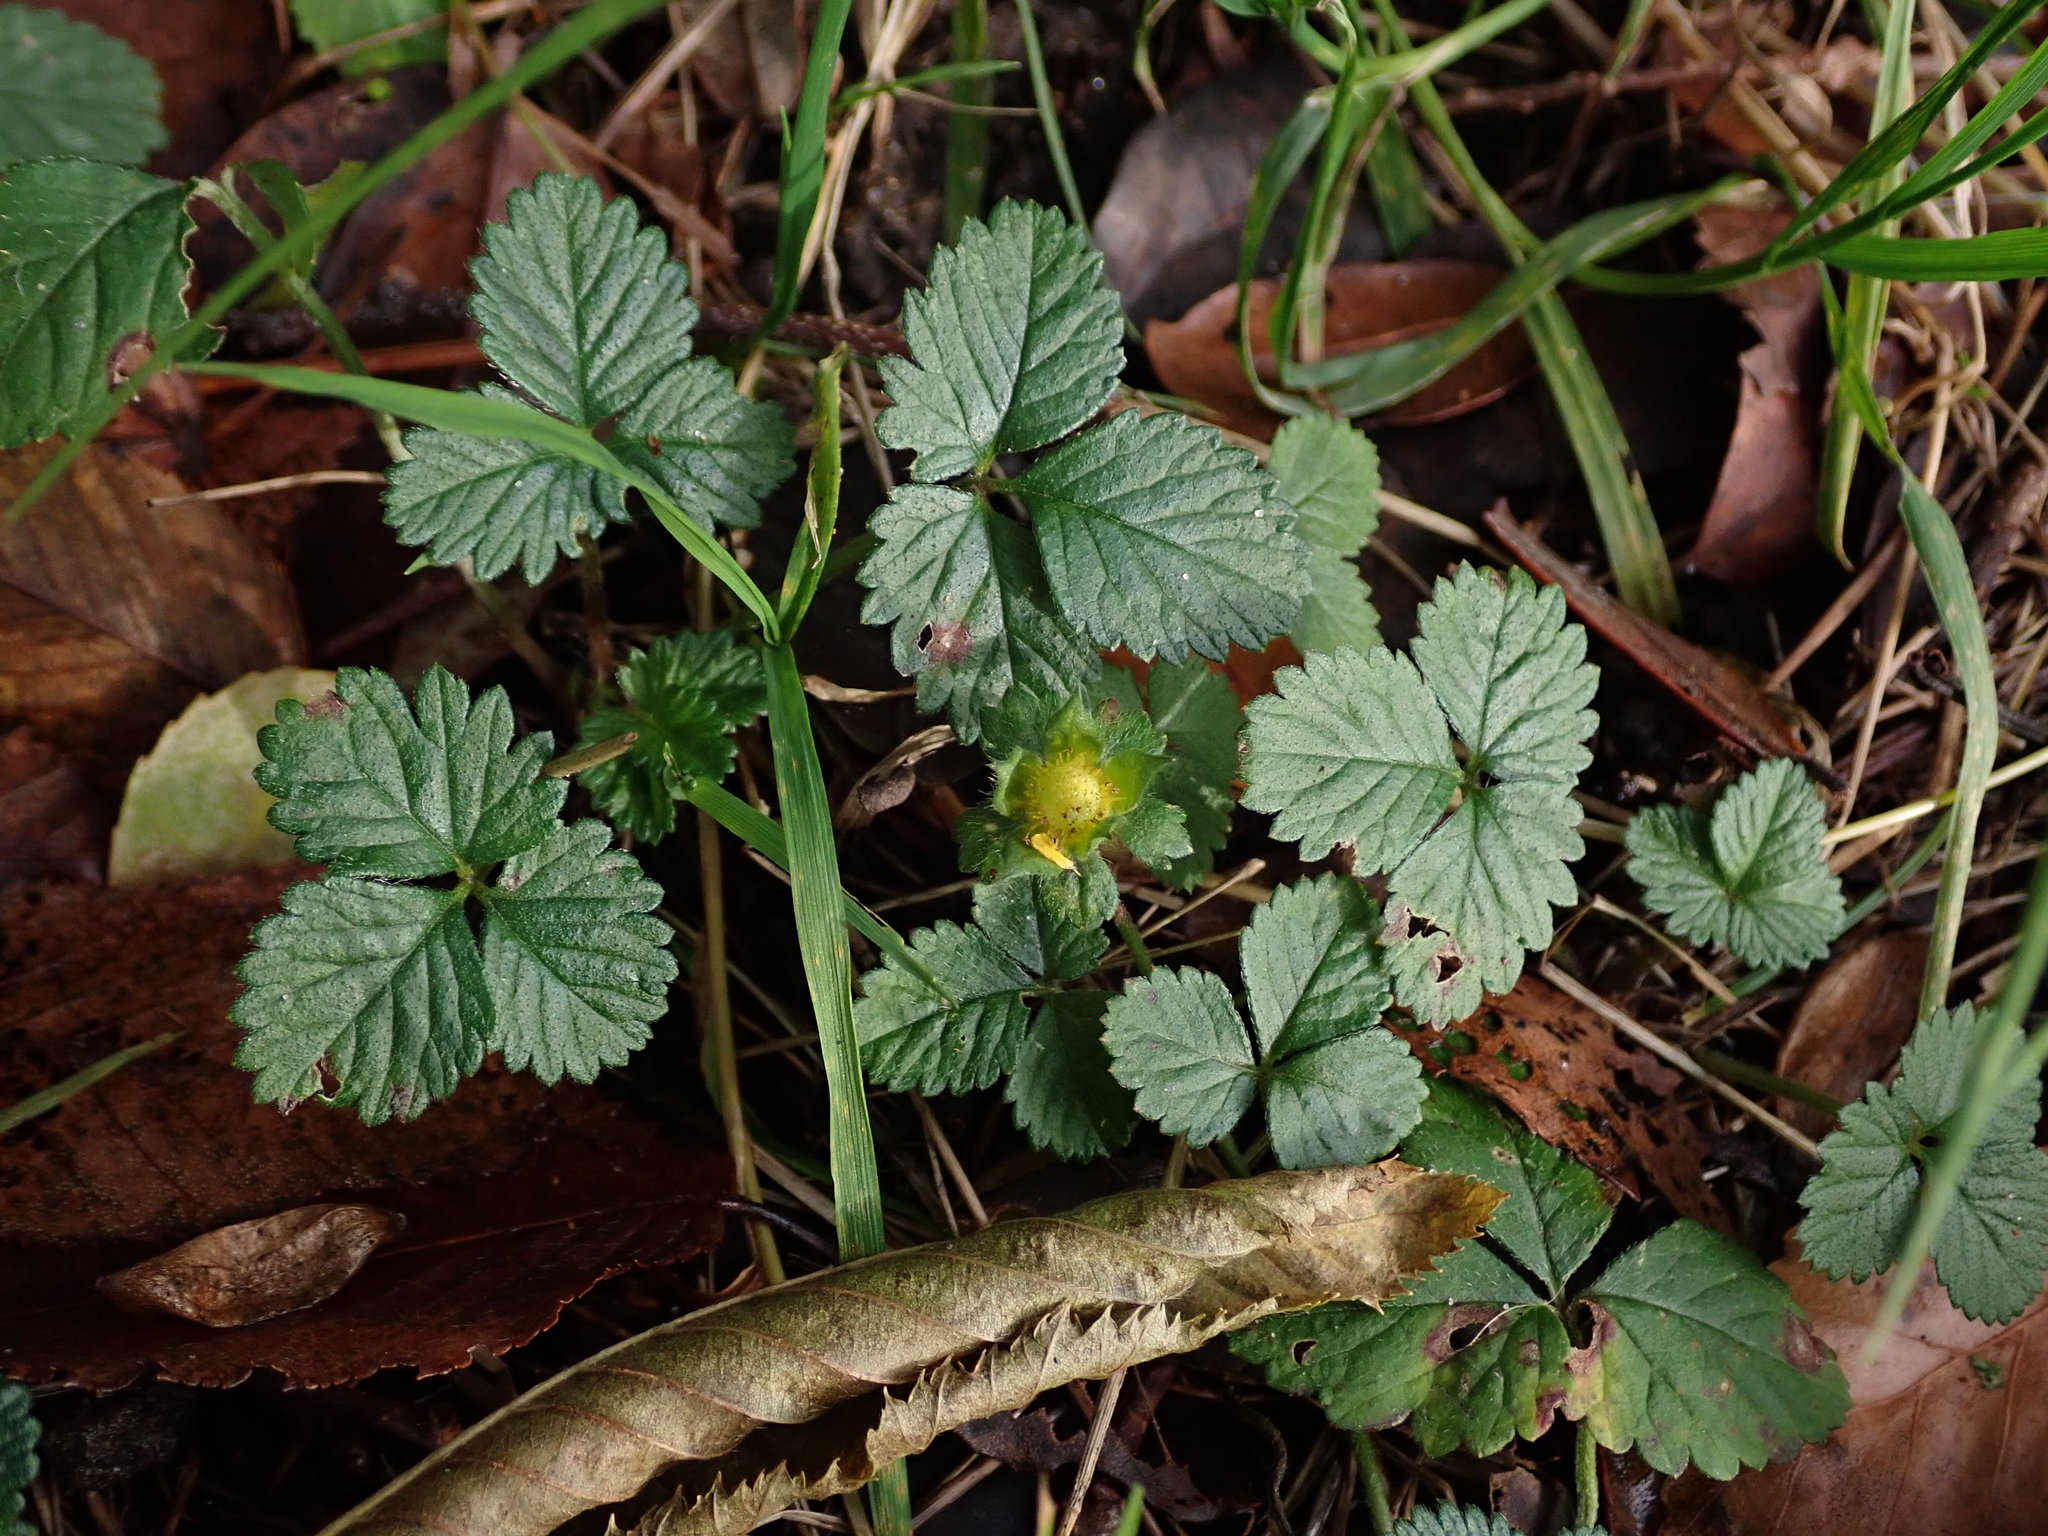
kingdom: Plantae
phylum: Tracheophyta
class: Magnoliopsida
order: Rosales
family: Rosaceae
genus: Potentilla
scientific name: Potentilla indica
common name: Yellow-flowered strawberry
